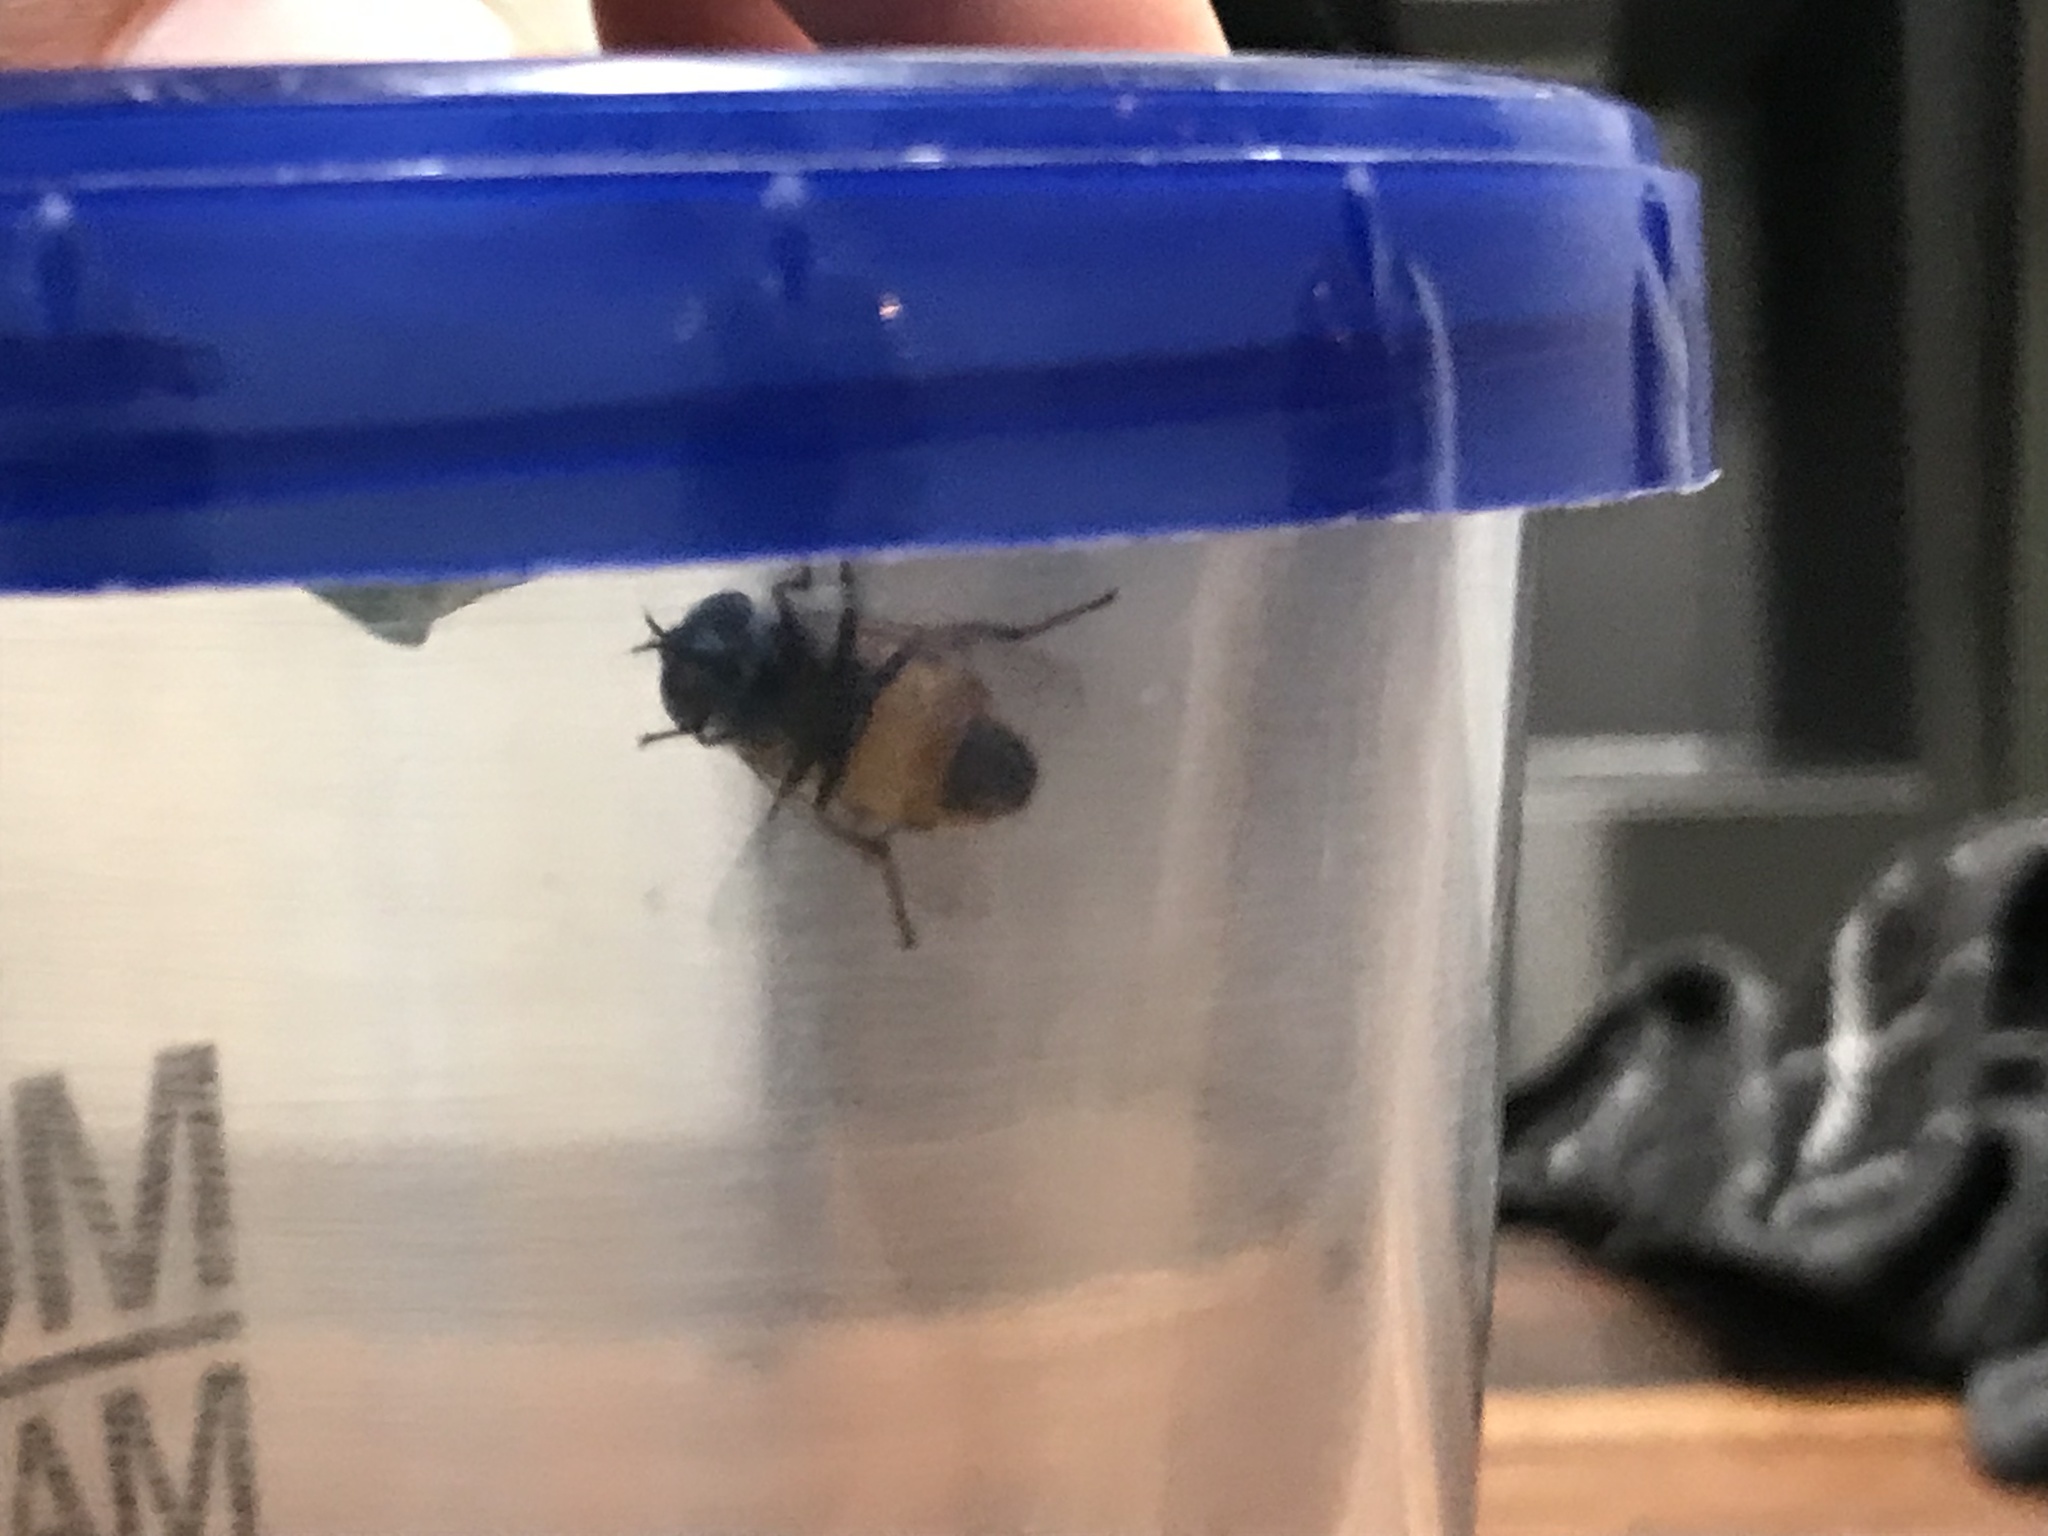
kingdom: Animalia
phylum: Arthropoda
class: Insecta
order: Diptera
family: Syrphidae
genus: Copestylum
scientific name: Copestylum haagii
